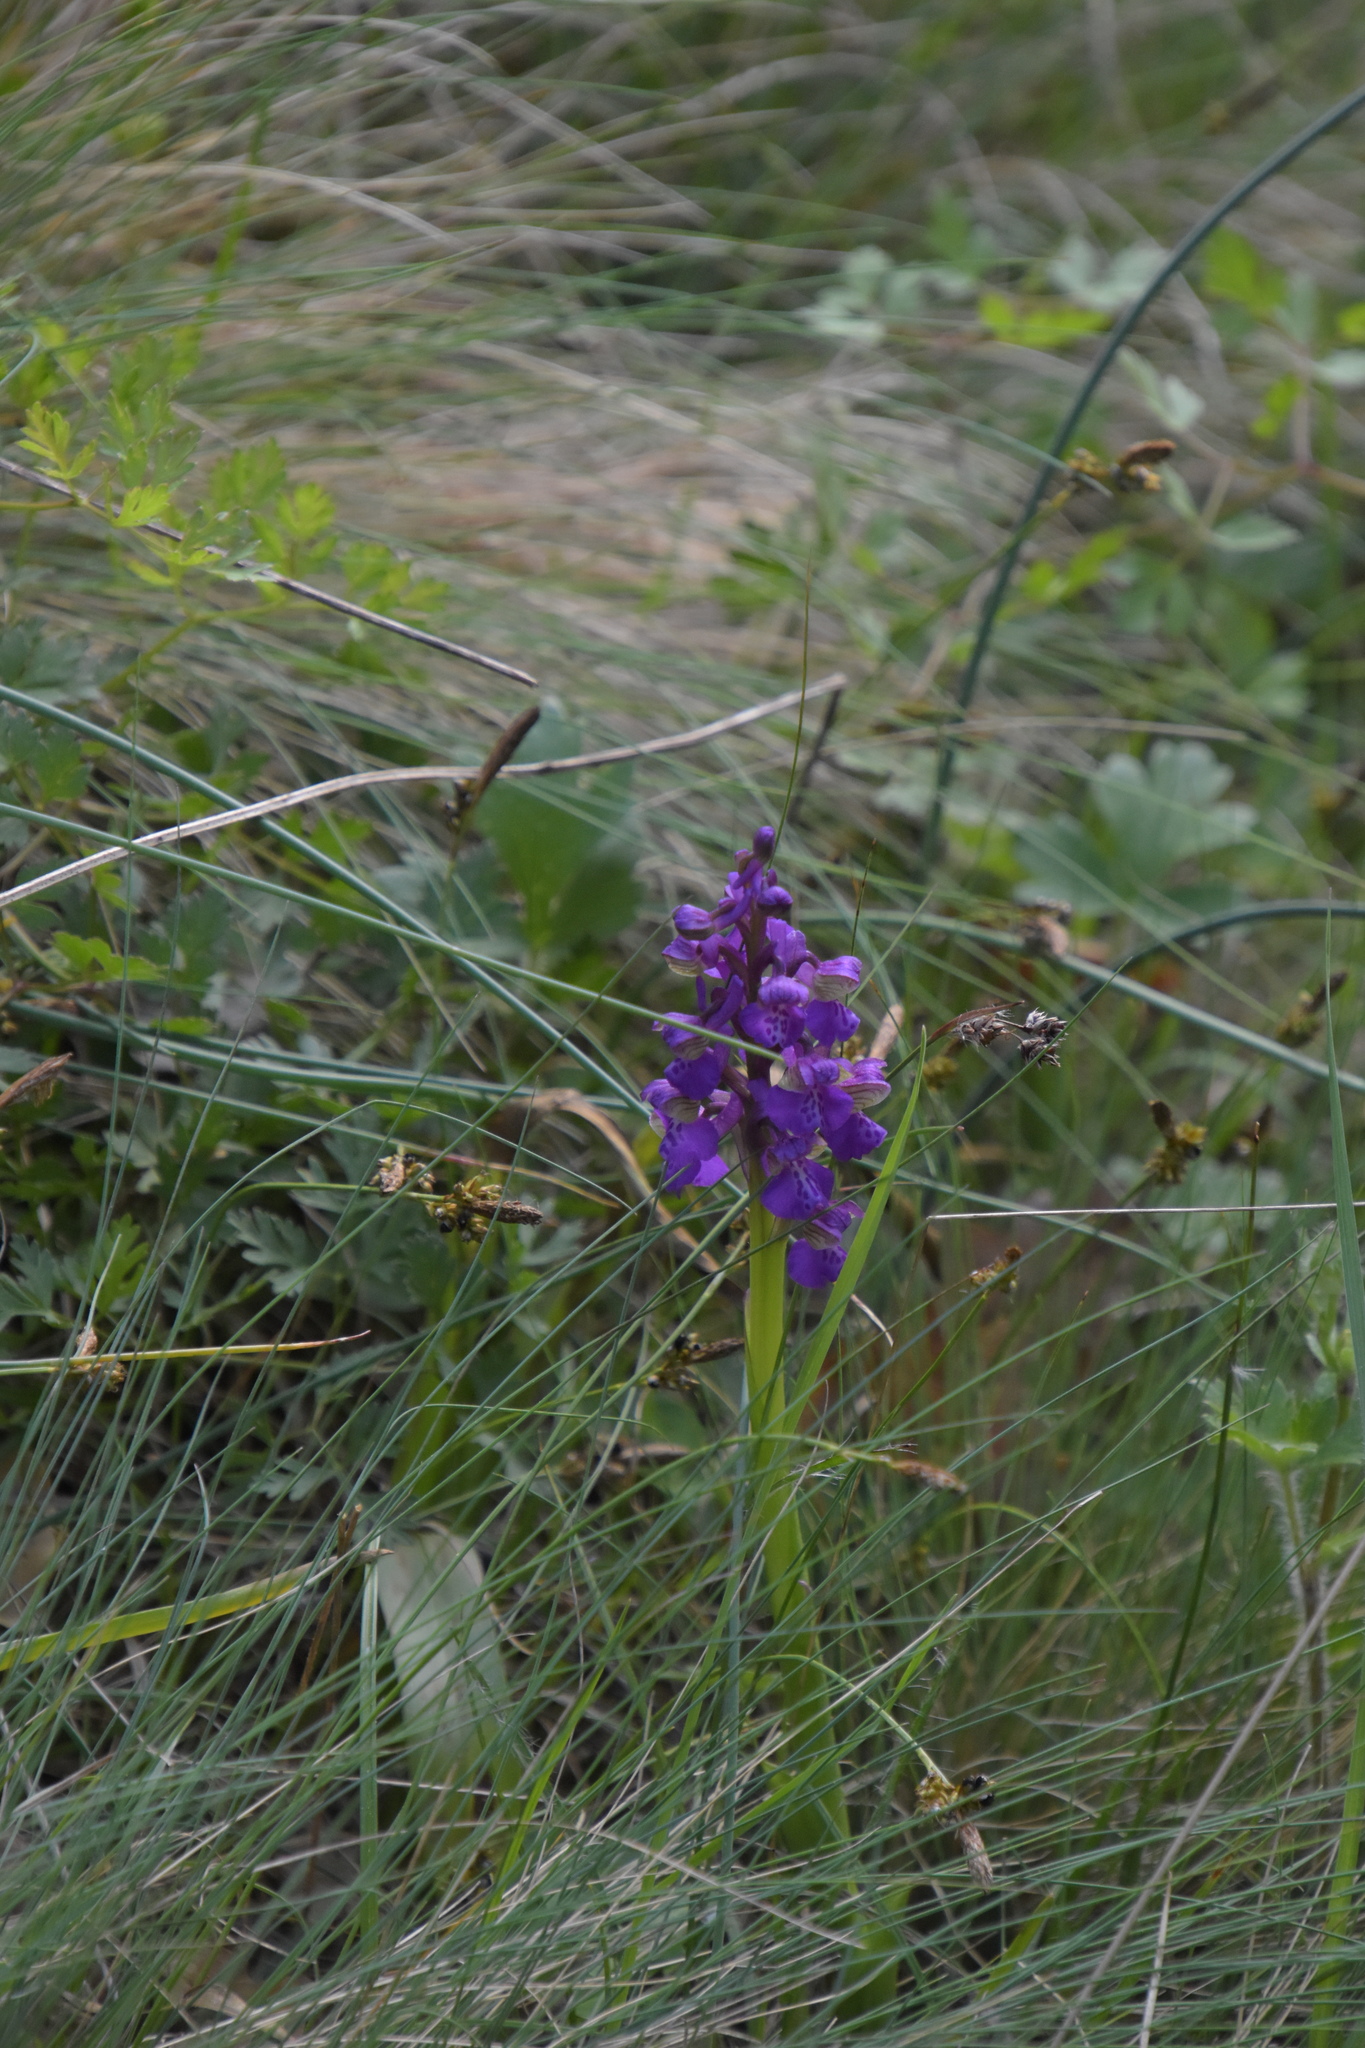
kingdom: Plantae
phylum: Tracheophyta
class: Liliopsida
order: Asparagales
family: Orchidaceae
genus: Anacamptis
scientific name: Anacamptis morio
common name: Green-winged orchid
